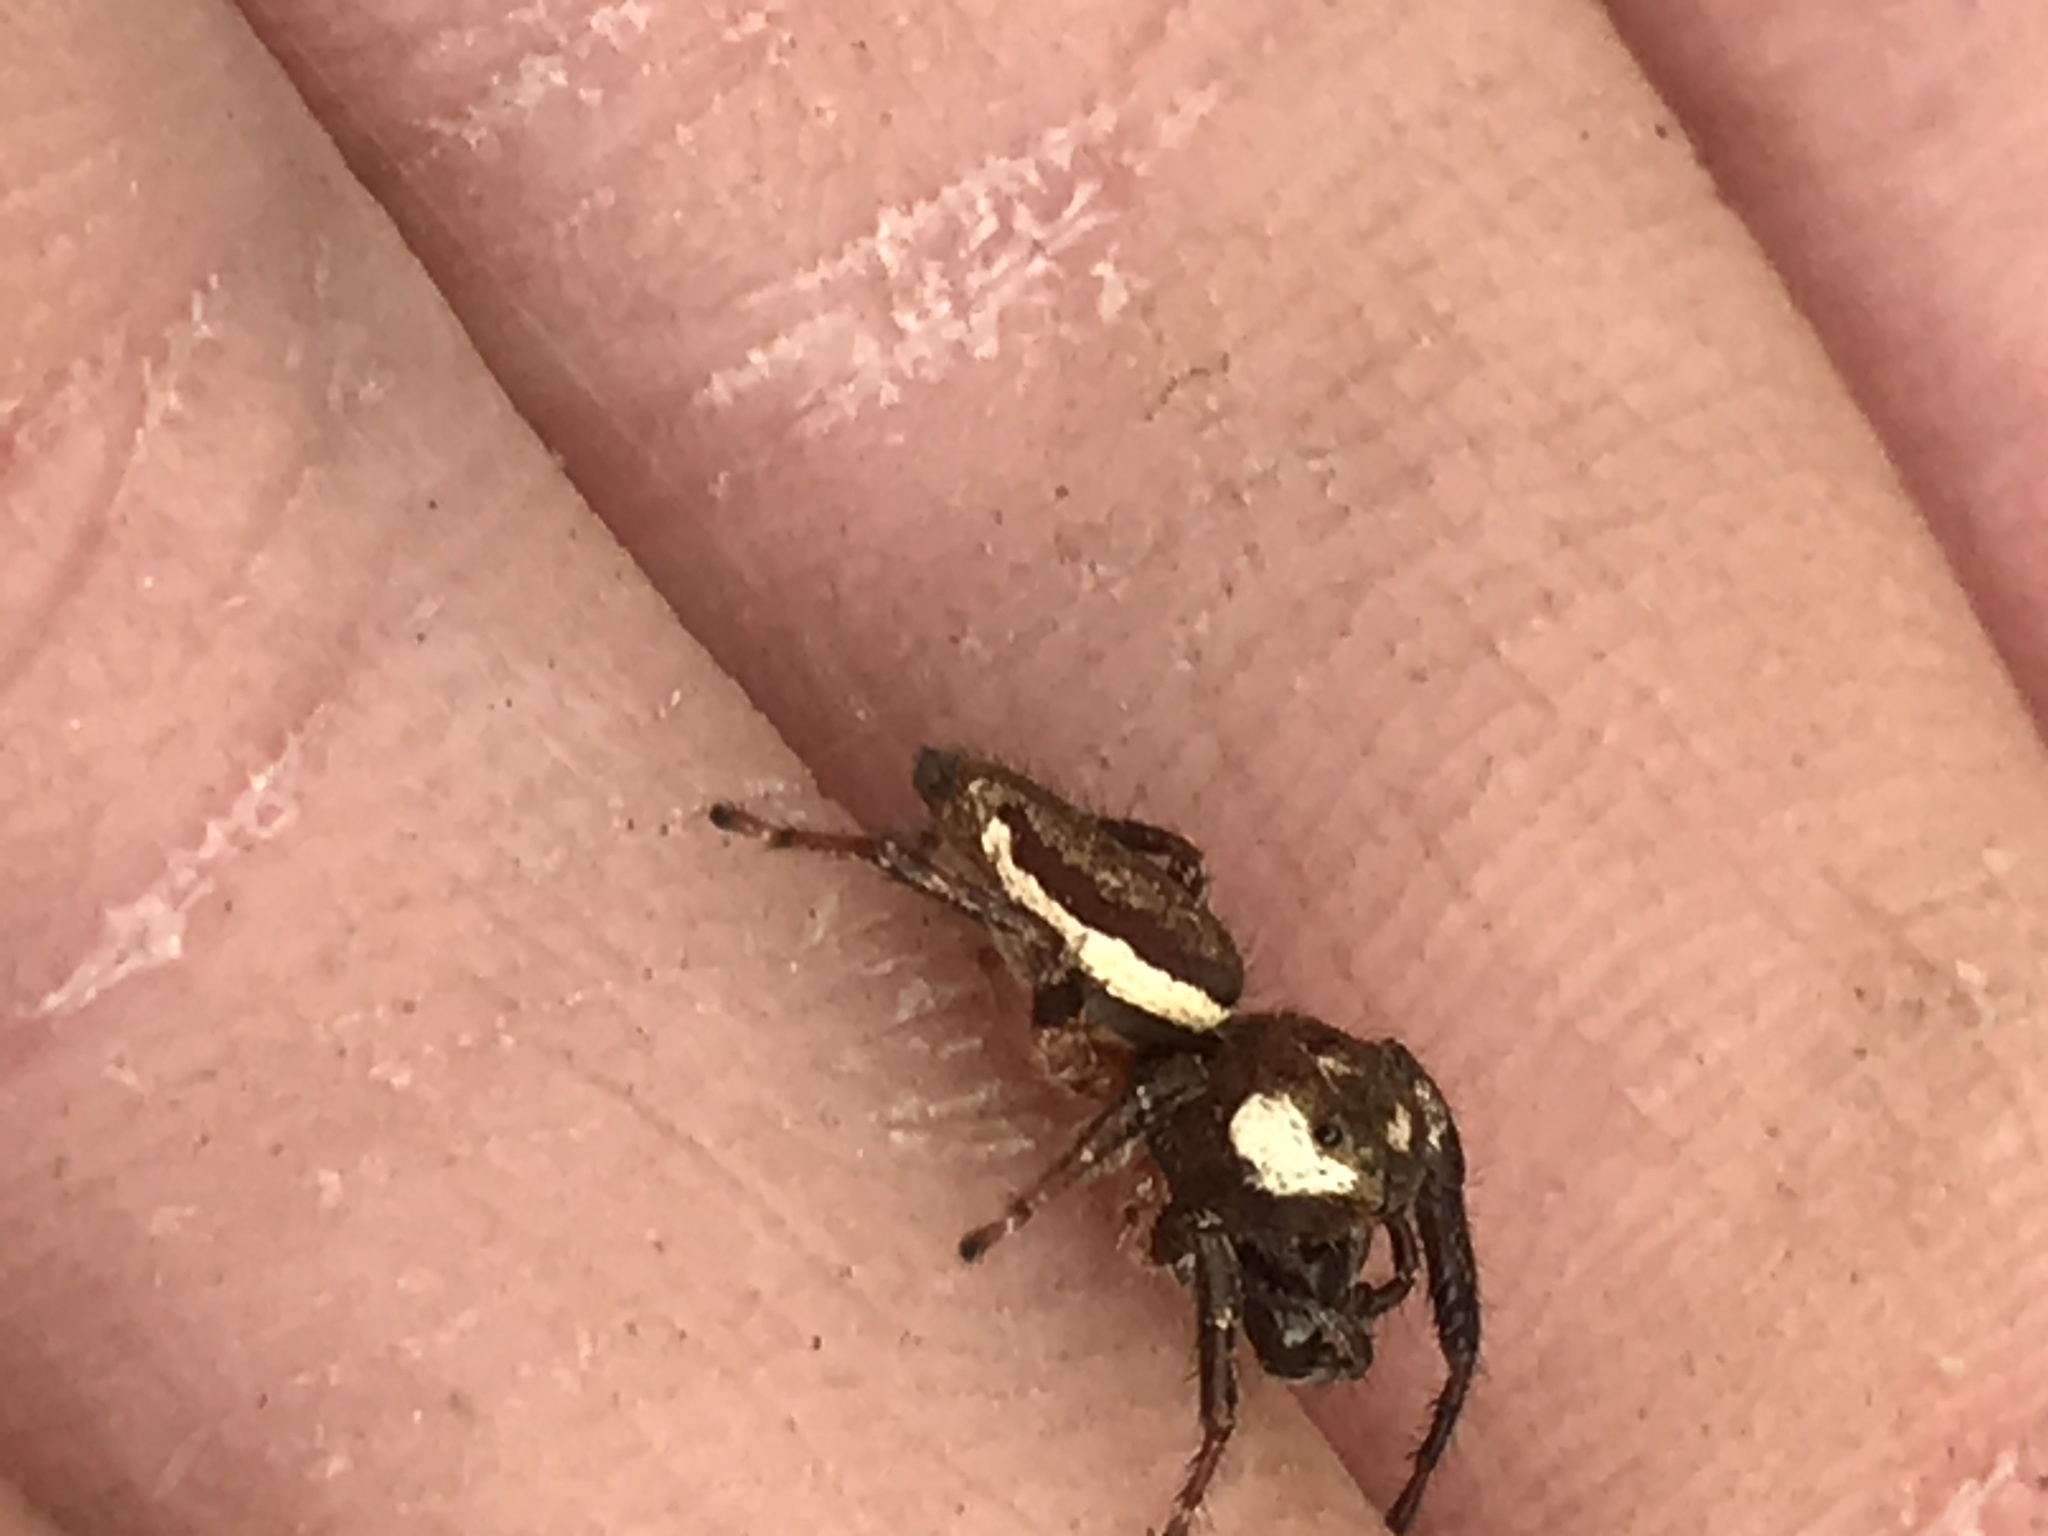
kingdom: Animalia
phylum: Arthropoda
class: Arachnida
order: Araneae
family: Salticidae
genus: Eris
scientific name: Eris militaris
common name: Bronze jumper
